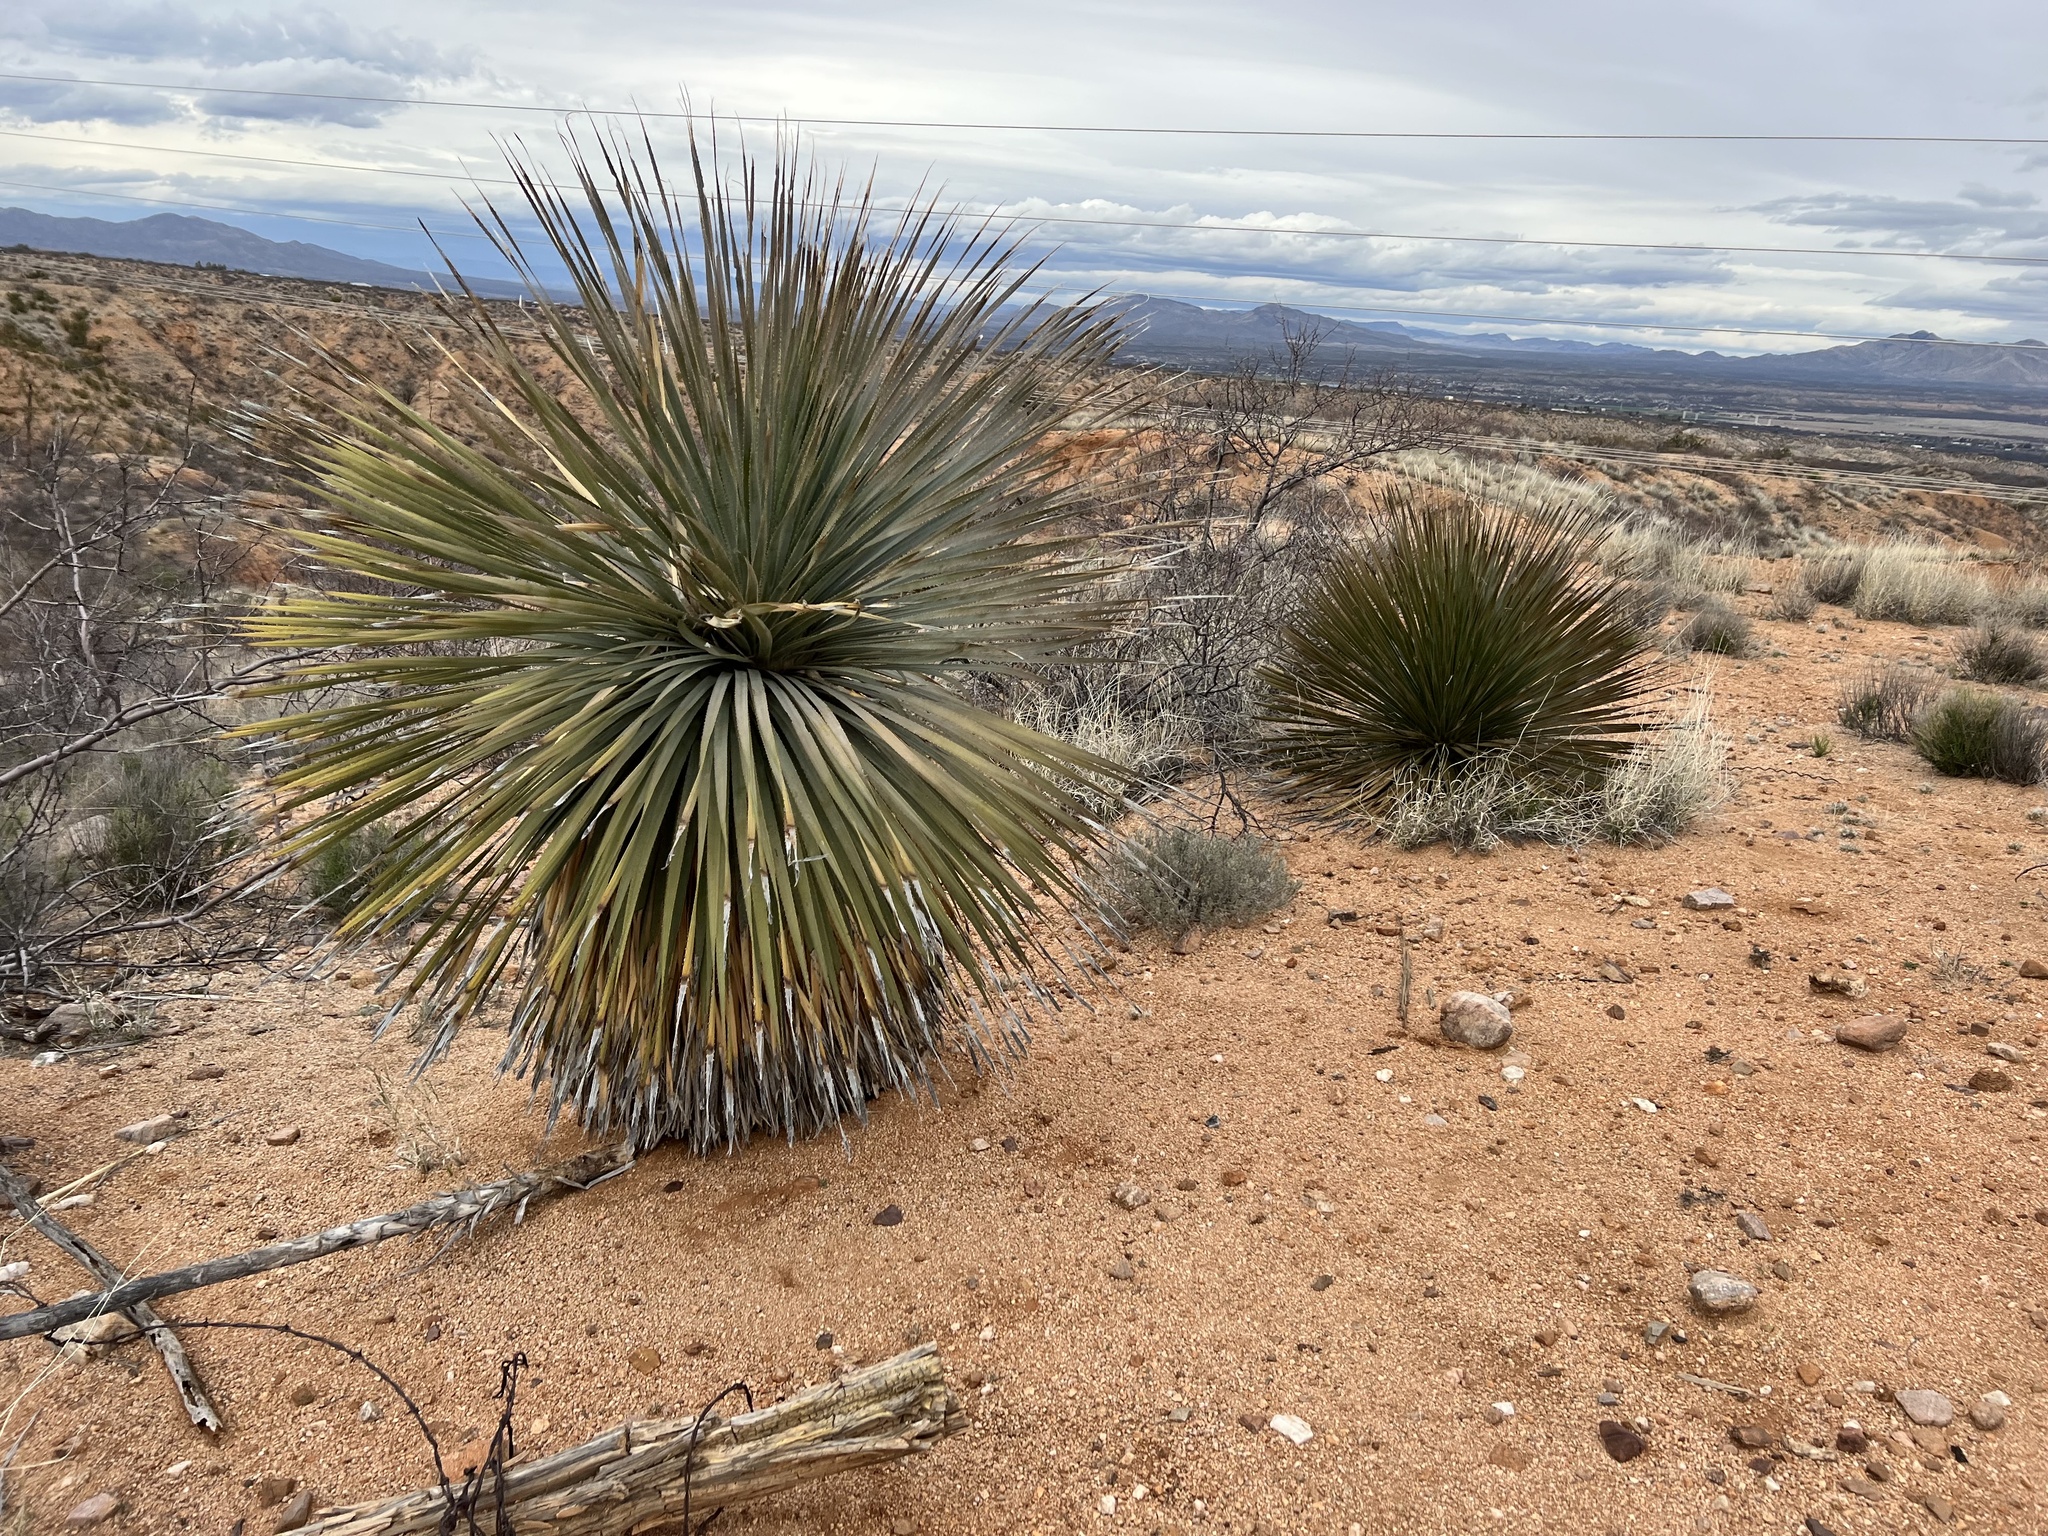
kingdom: Plantae
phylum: Tracheophyta
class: Liliopsida
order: Asparagales
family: Asparagaceae
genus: Dasylirion
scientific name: Dasylirion wheeleri
